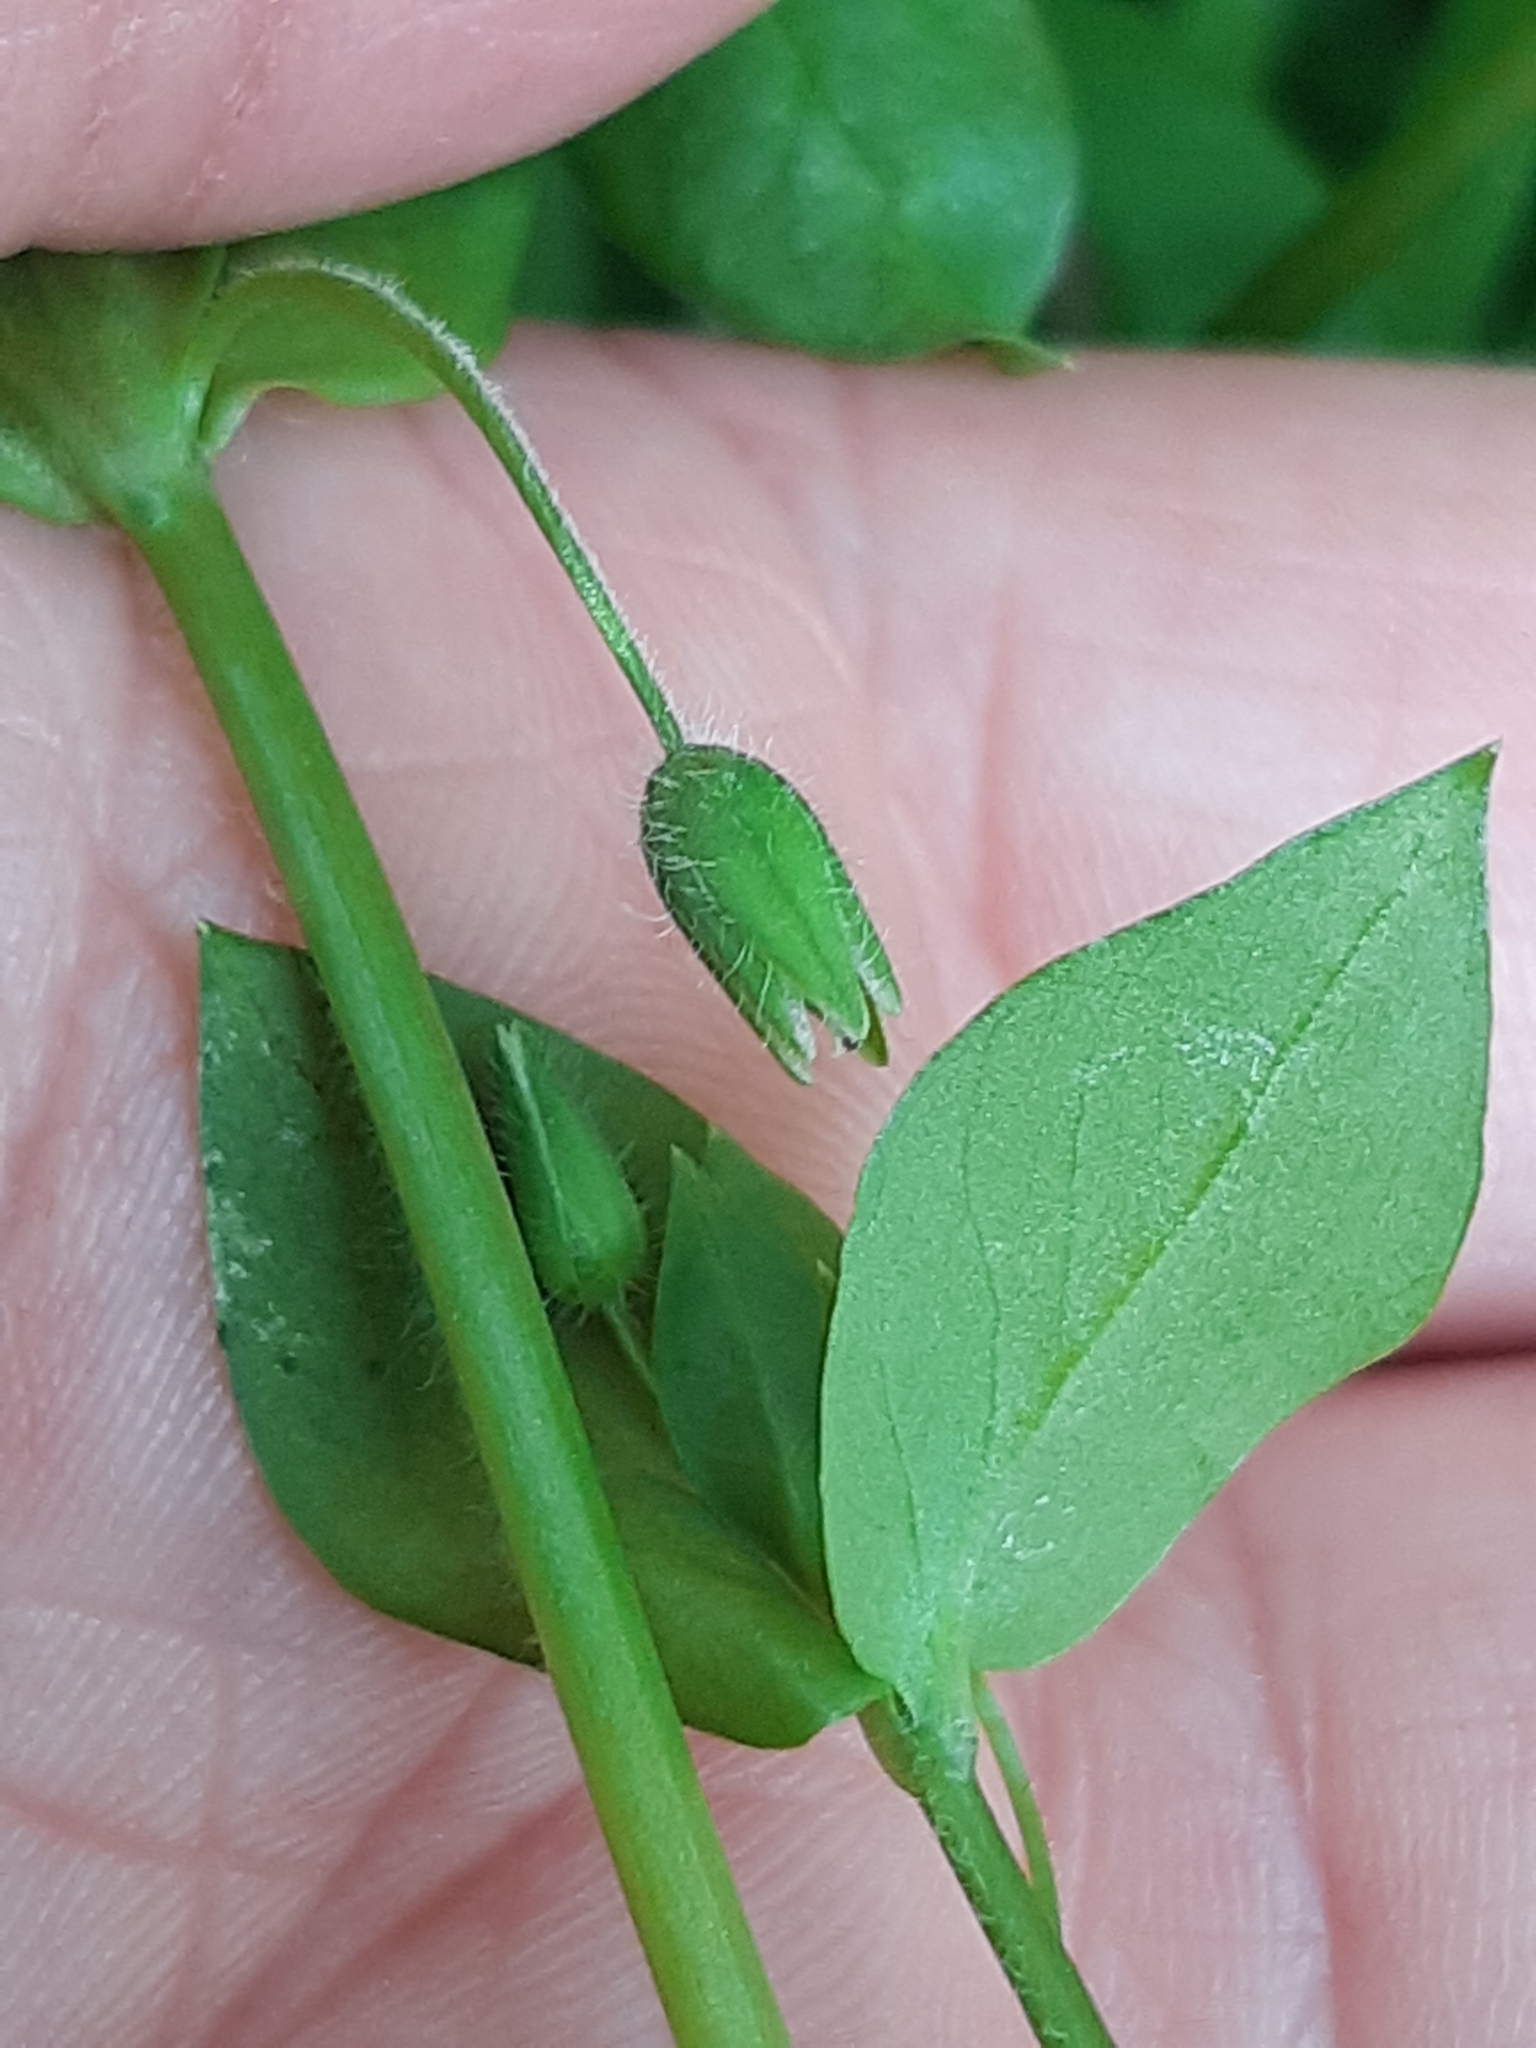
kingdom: Plantae
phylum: Tracheophyta
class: Magnoliopsida
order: Caryophyllales
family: Caryophyllaceae
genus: Stellaria
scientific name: Stellaria media
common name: Common chickweed
